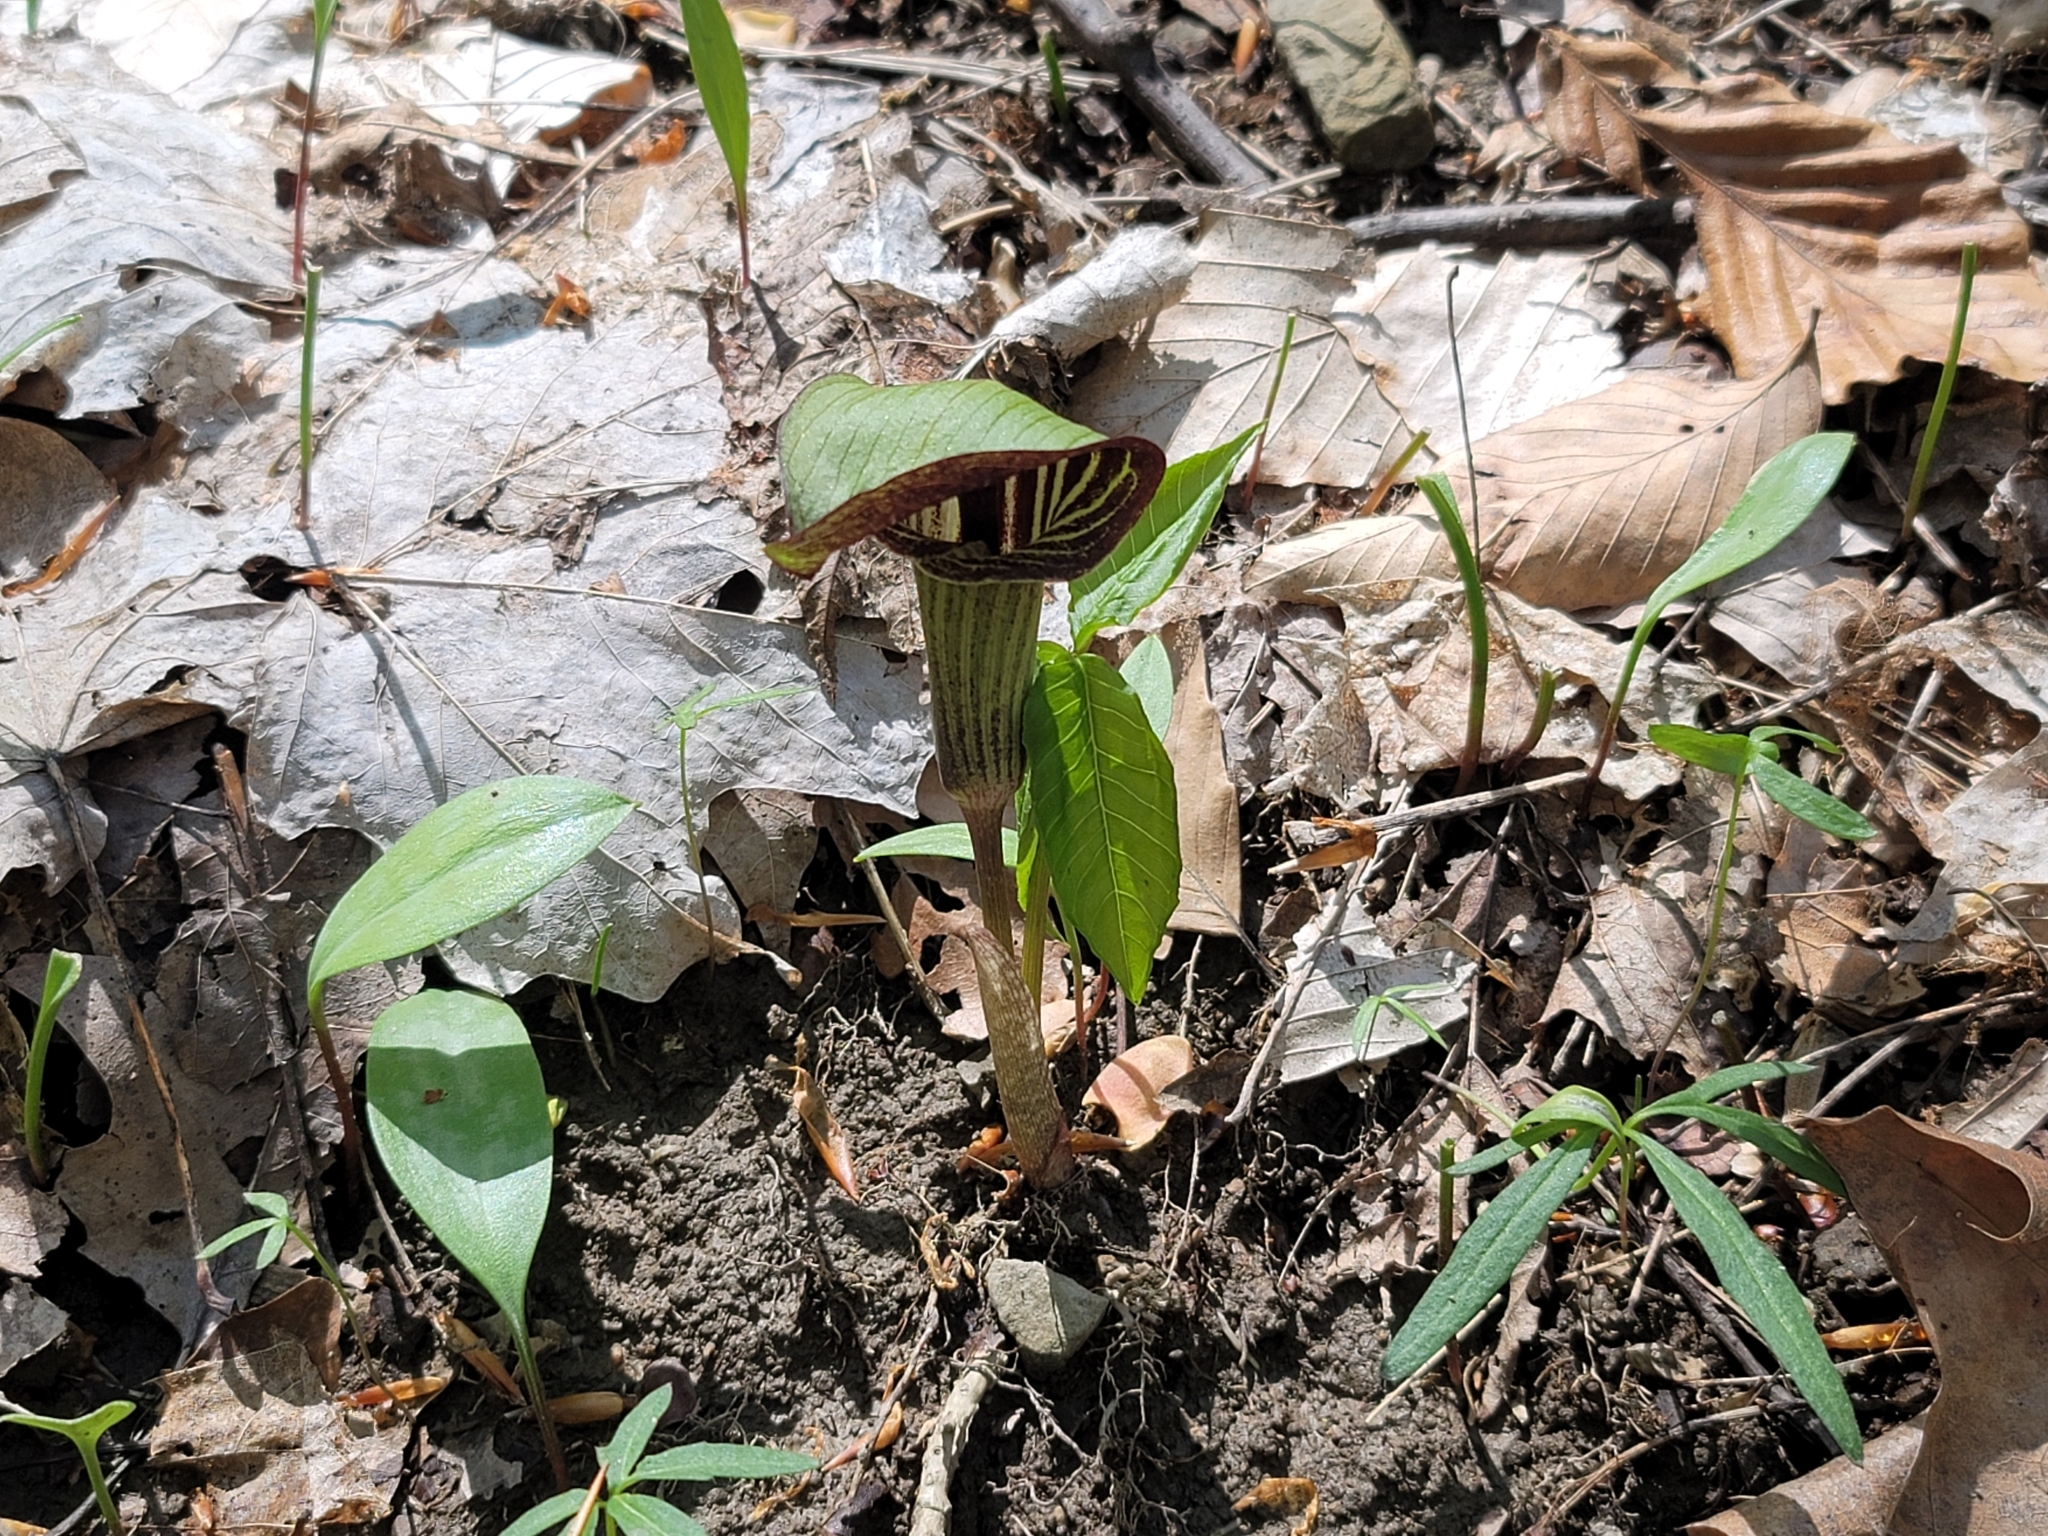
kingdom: Plantae
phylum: Tracheophyta
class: Liliopsida
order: Alismatales
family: Araceae
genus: Arisaema
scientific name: Arisaema triphyllum
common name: Jack-in-the-pulpit
